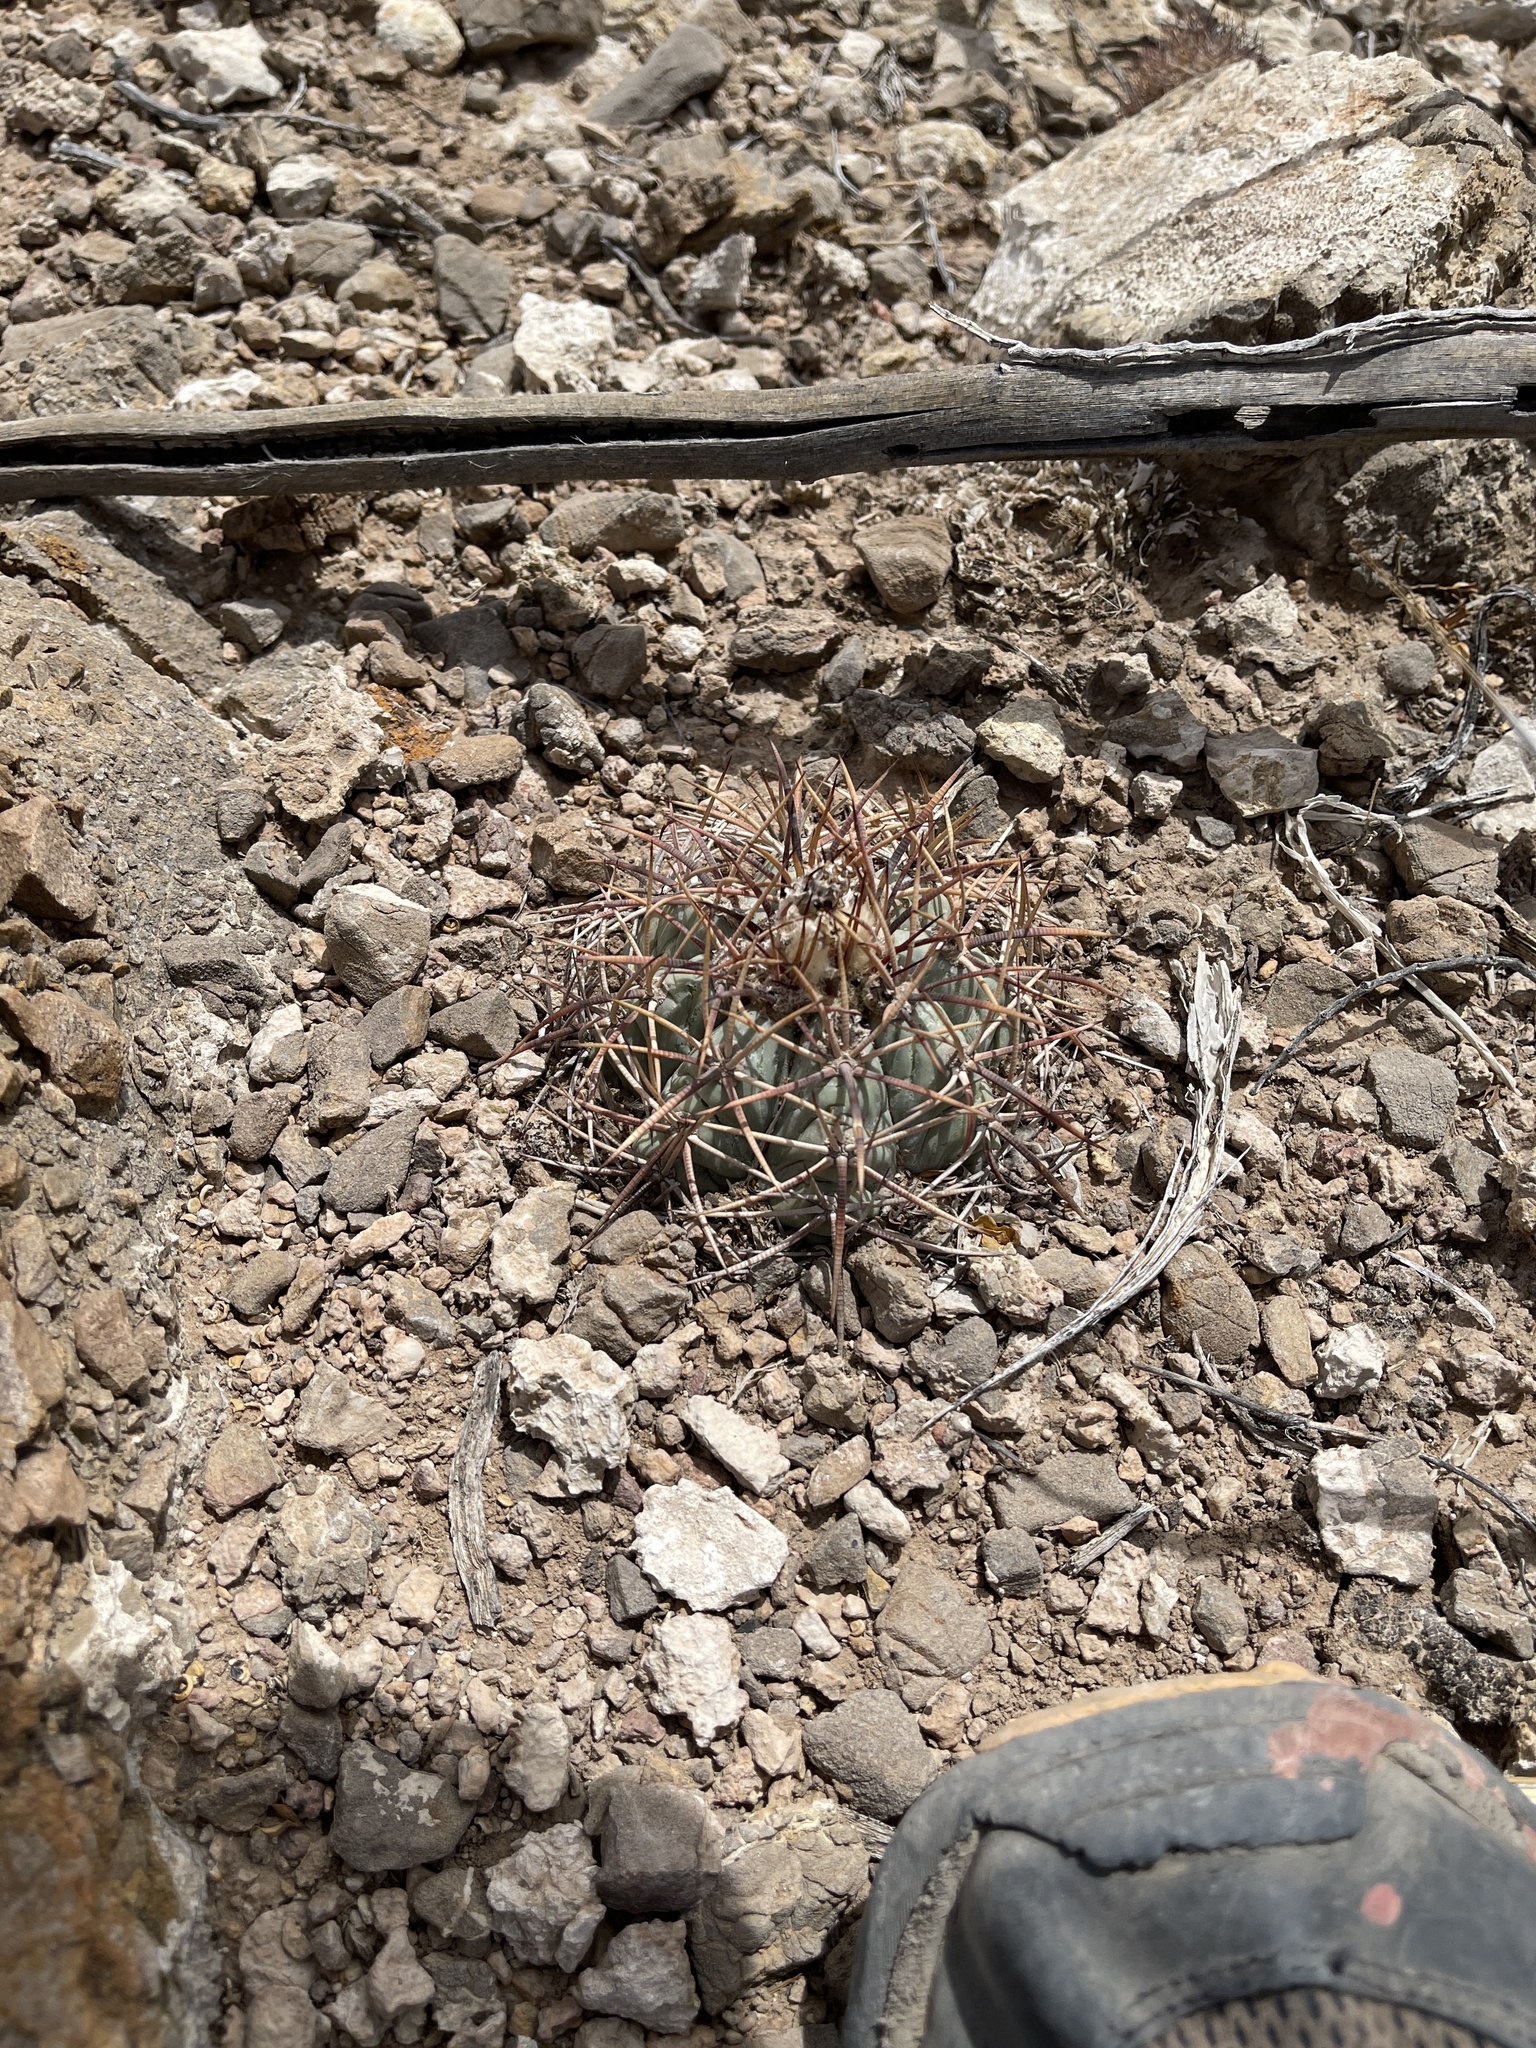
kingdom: Plantae
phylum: Tracheophyta
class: Magnoliopsida
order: Caryophyllales
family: Cactaceae
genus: Echinocactus
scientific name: Echinocactus horizonthalonius
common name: Devilshead
